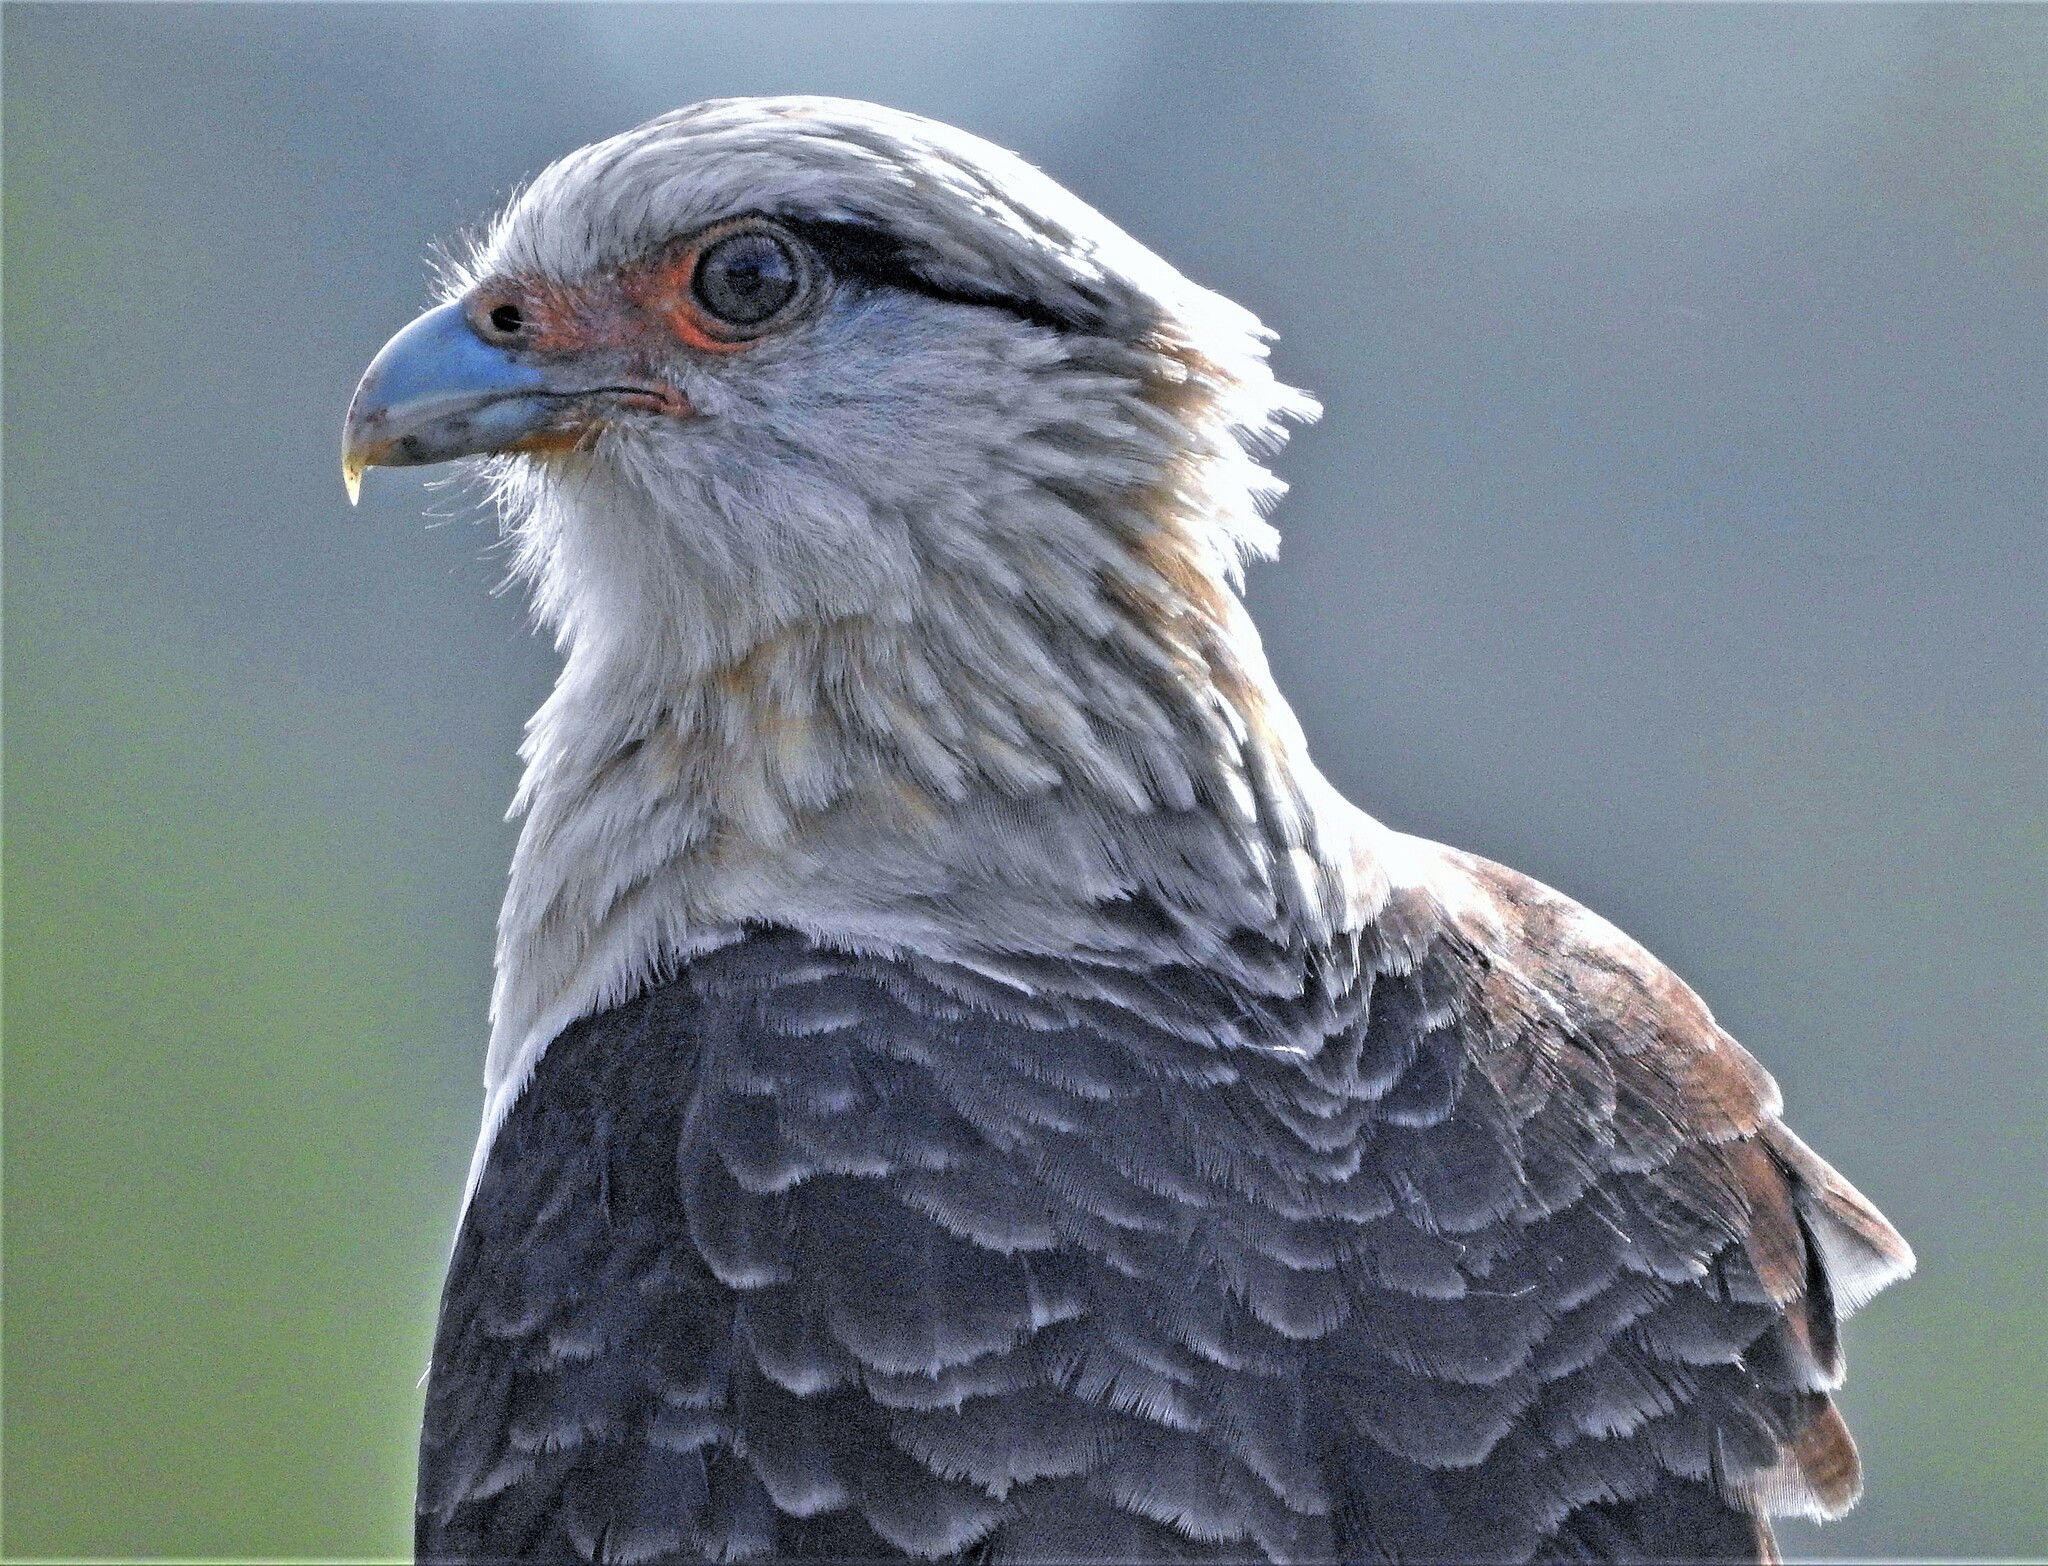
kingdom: Animalia
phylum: Chordata
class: Aves
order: Falconiformes
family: Falconidae
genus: Daptrius
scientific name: Daptrius
